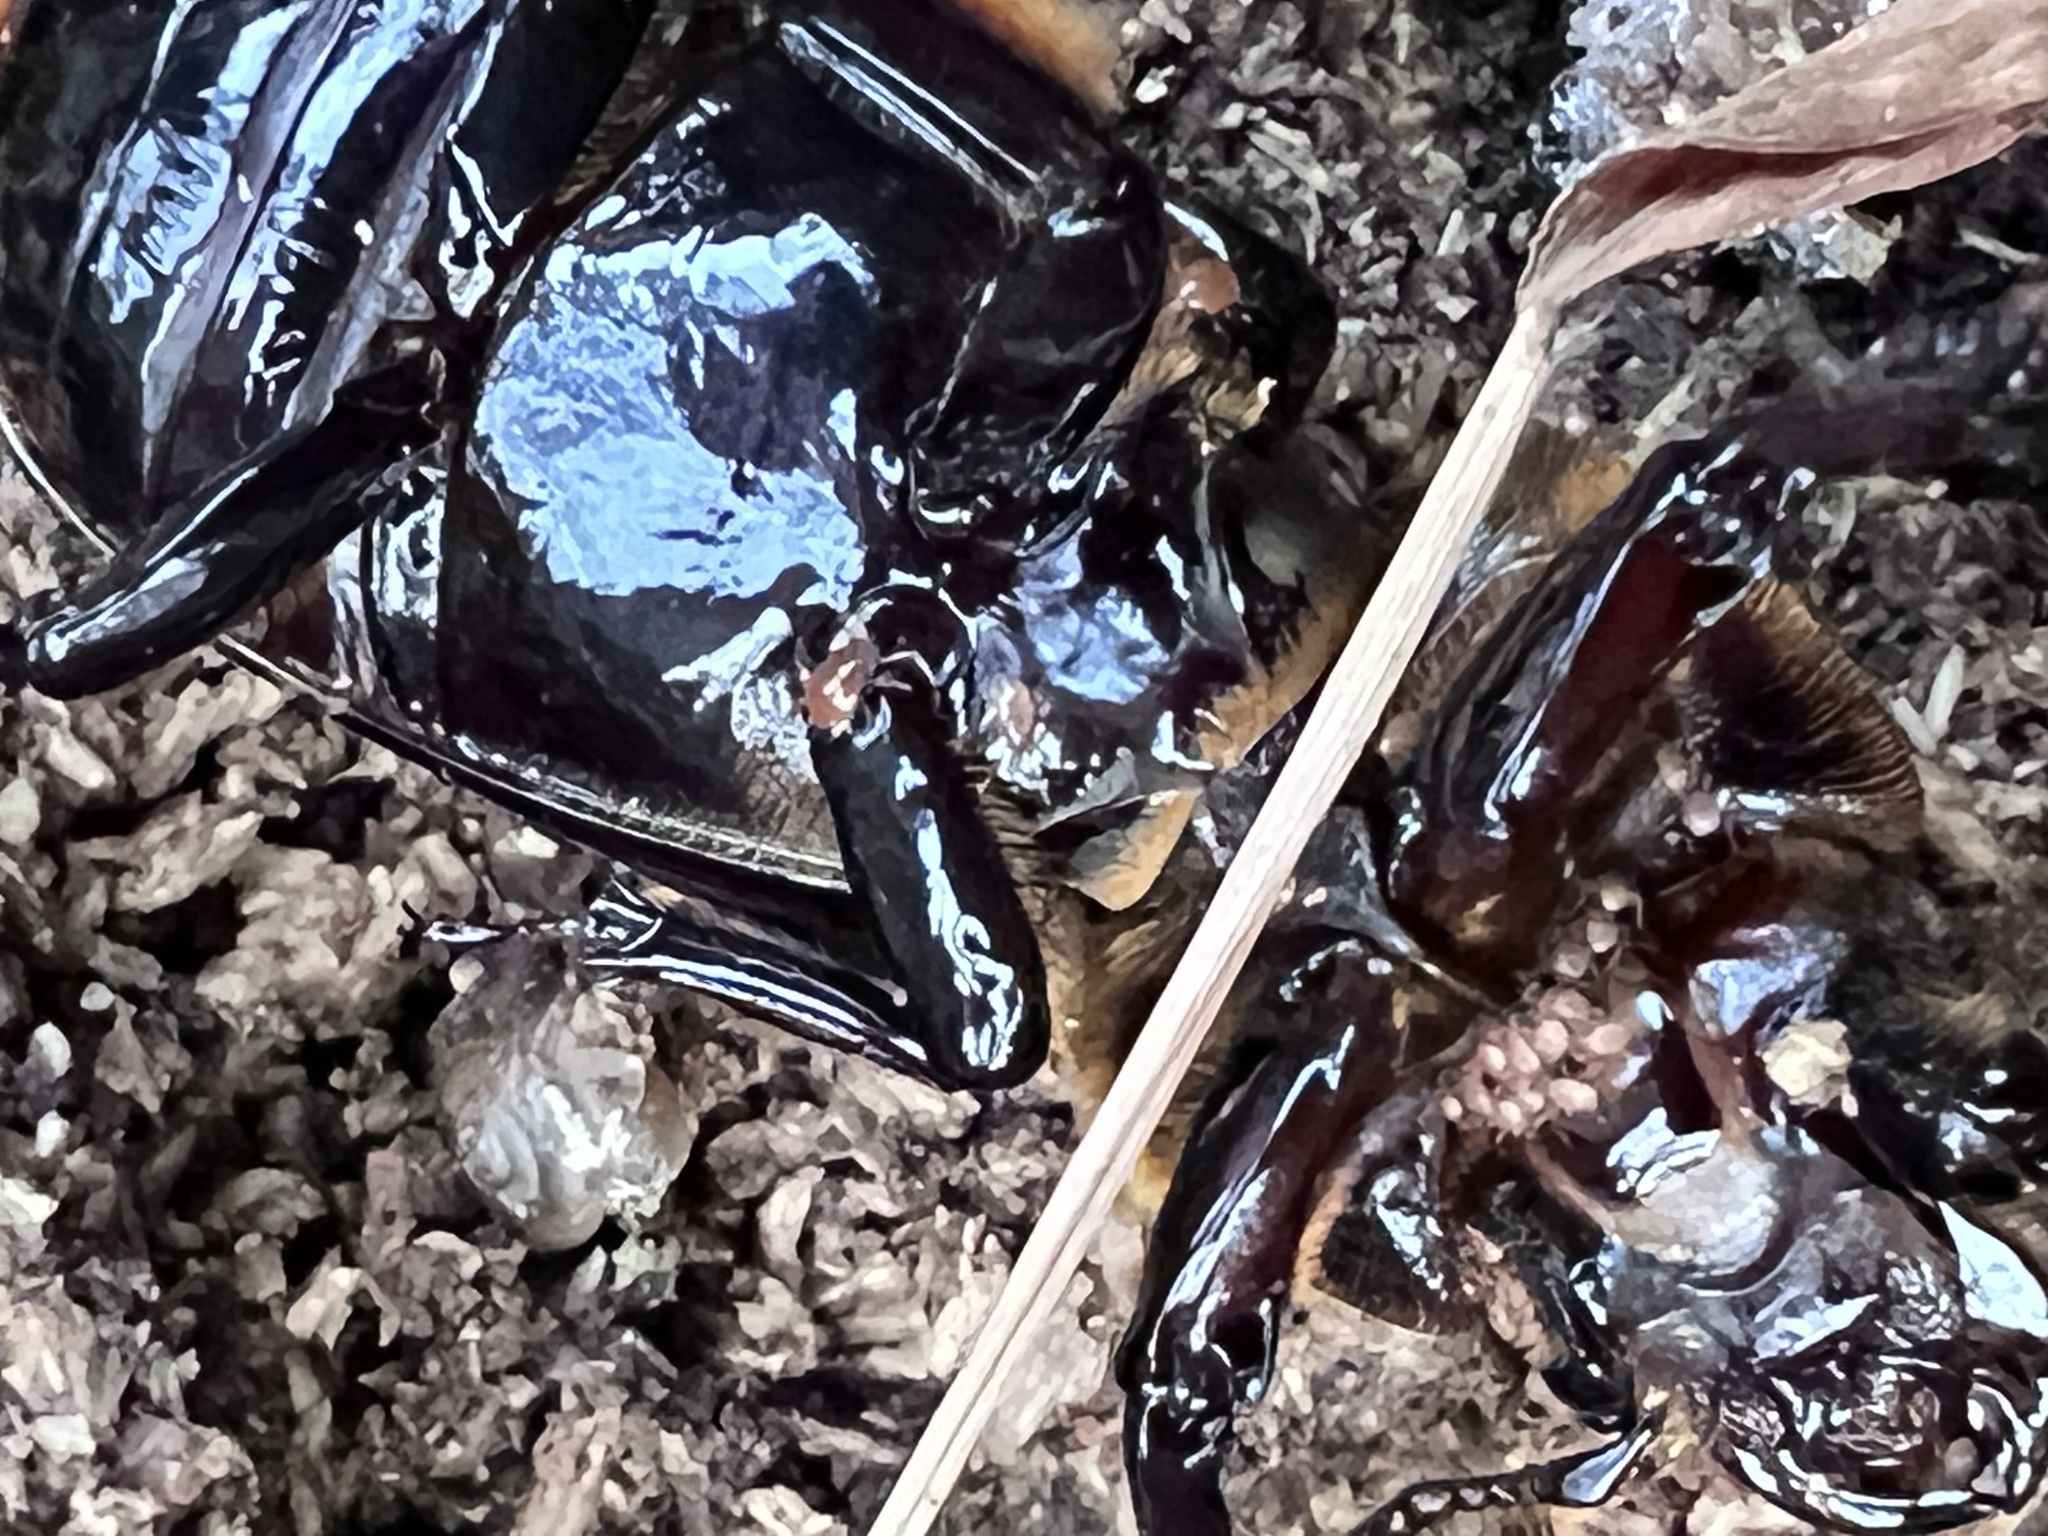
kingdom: Animalia
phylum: Arthropoda
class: Insecta
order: Coleoptera
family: Passalidae
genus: Odontotaenius
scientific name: Odontotaenius disjunctus
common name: Patent leather beetle
